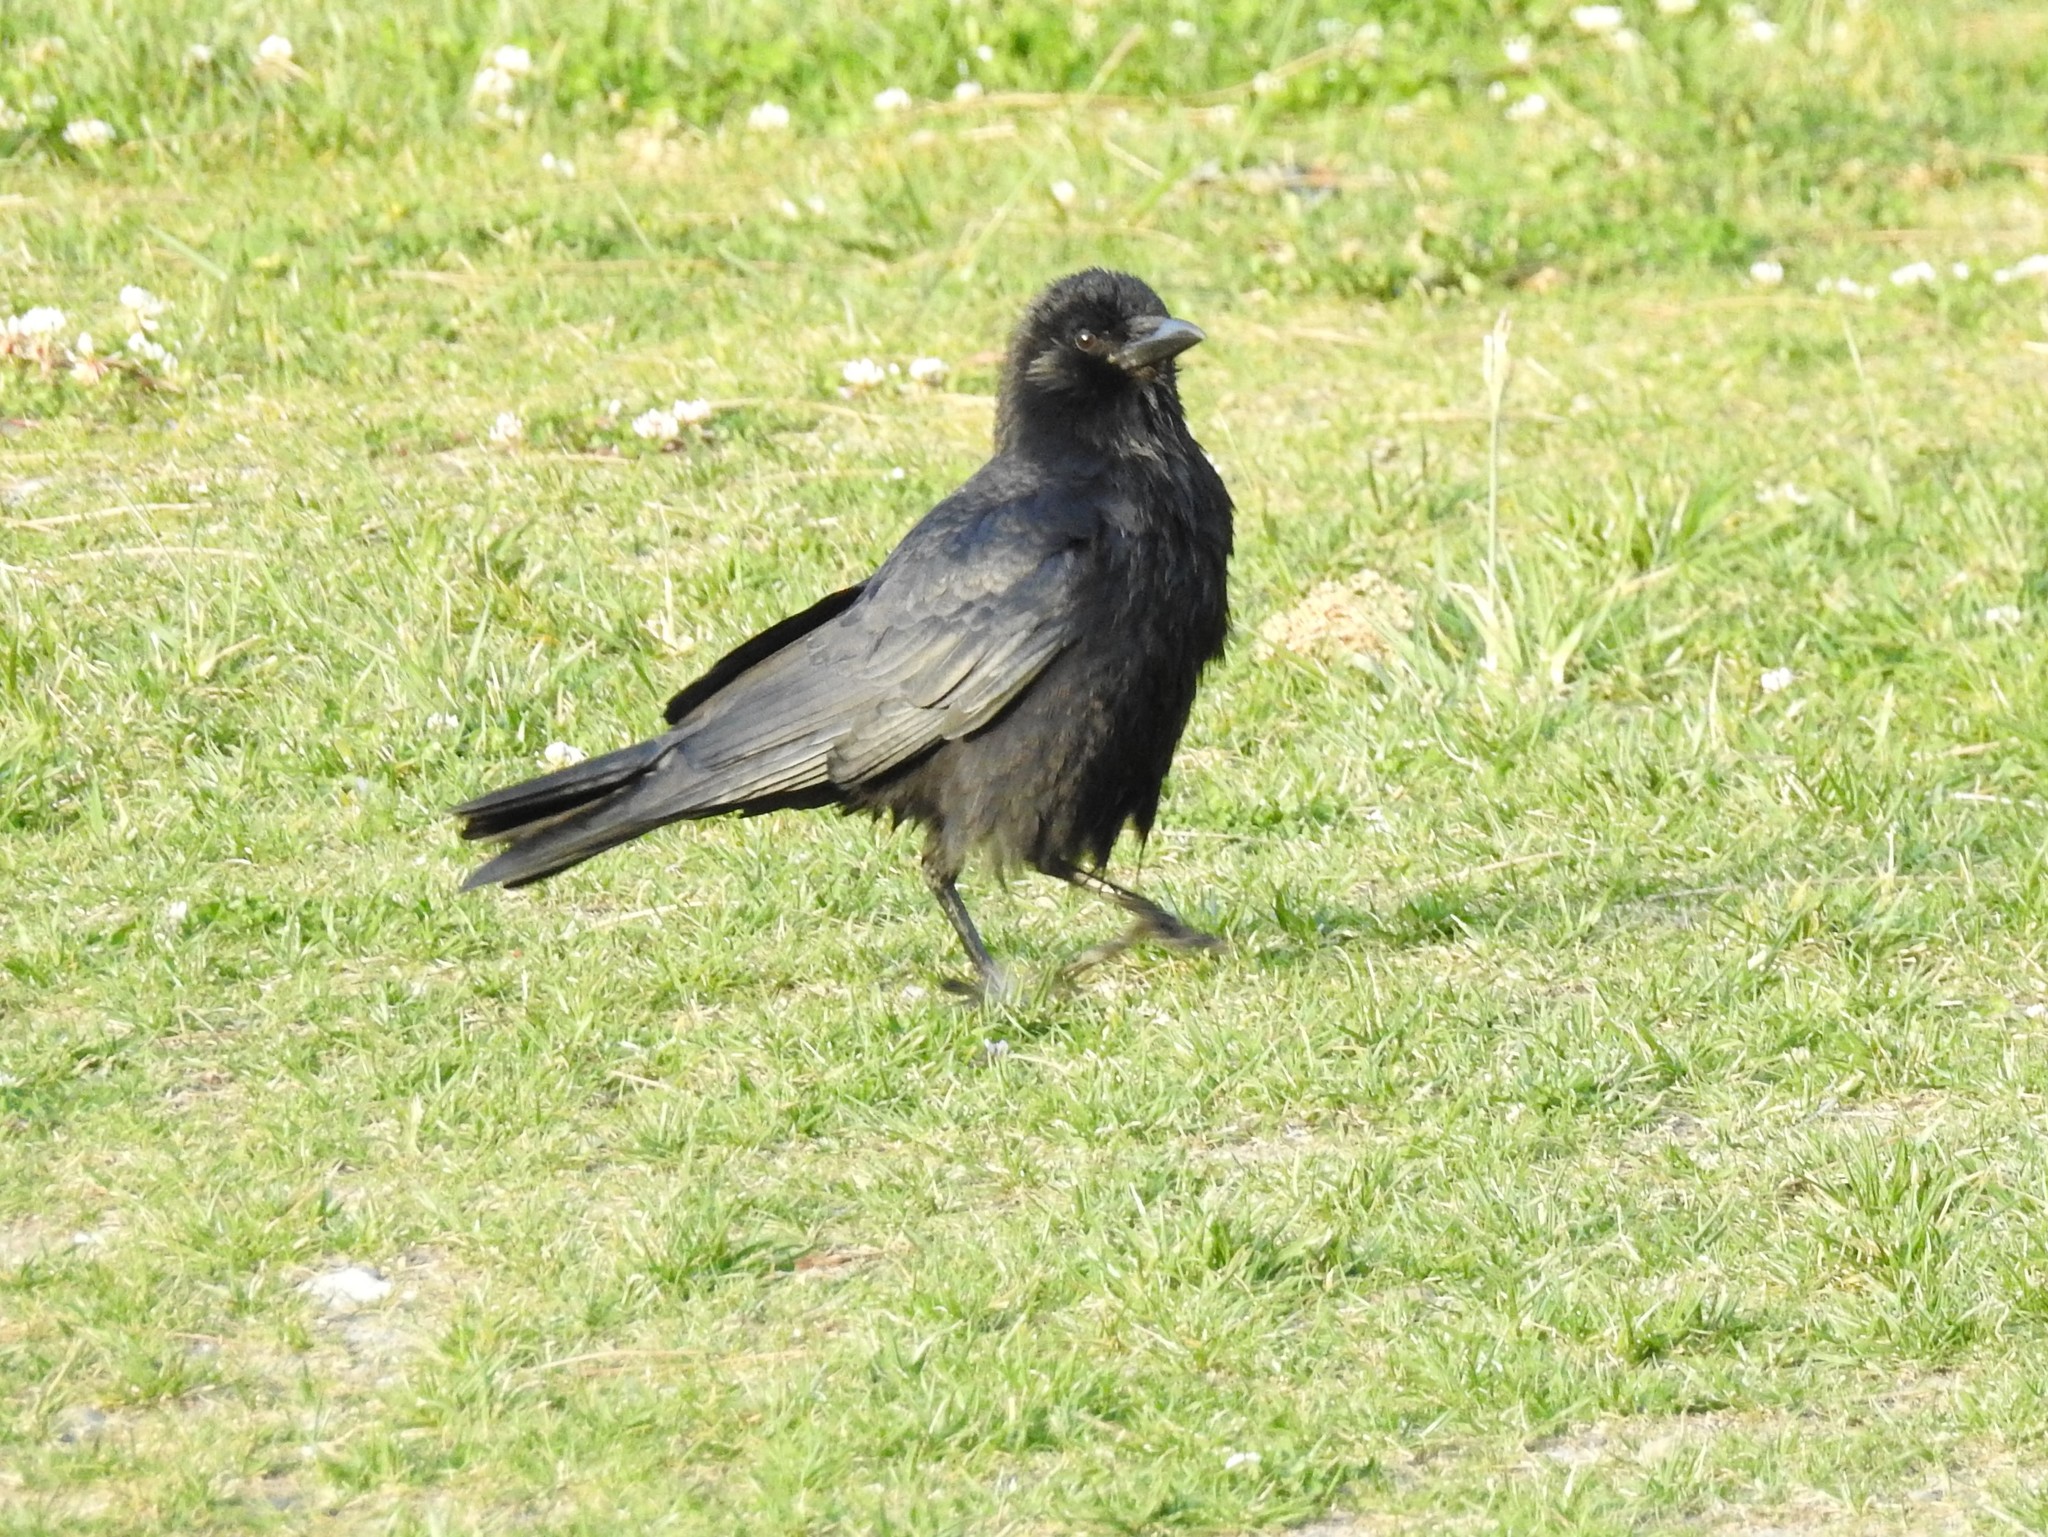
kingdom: Animalia
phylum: Chordata
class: Aves
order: Passeriformes
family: Corvidae
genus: Corvus
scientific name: Corvus brachyrhynchos
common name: American crow
